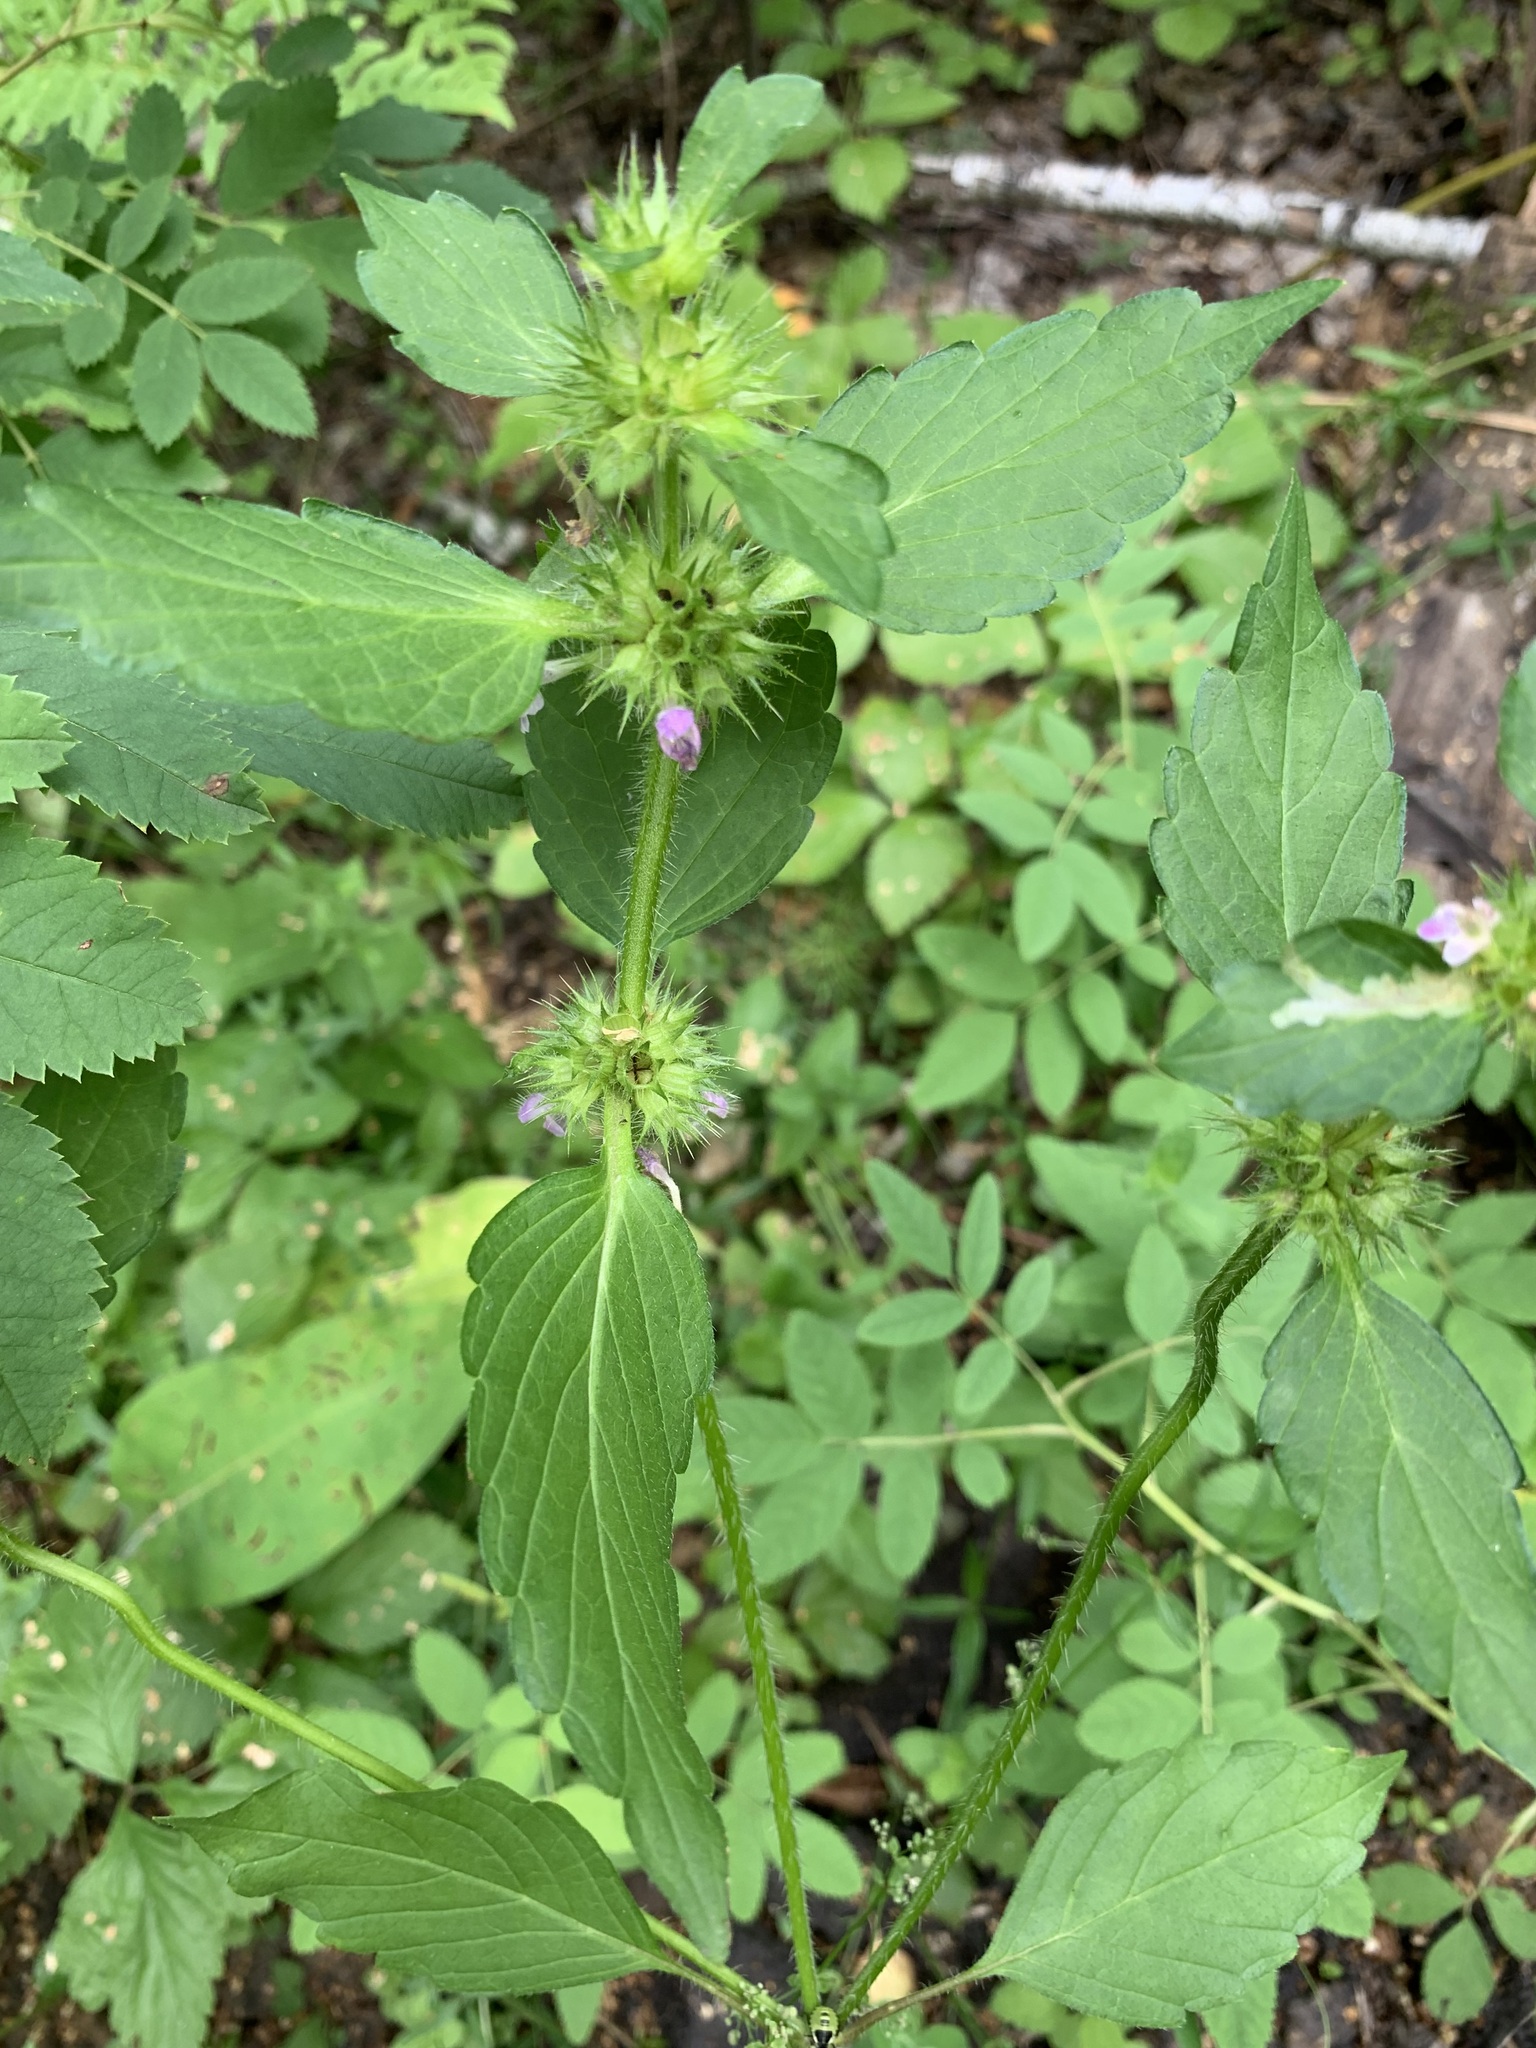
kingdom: Plantae
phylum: Tracheophyta
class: Magnoliopsida
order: Lamiales
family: Lamiaceae
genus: Galeopsis
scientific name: Galeopsis bifida
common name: Bifid hemp-nettle
